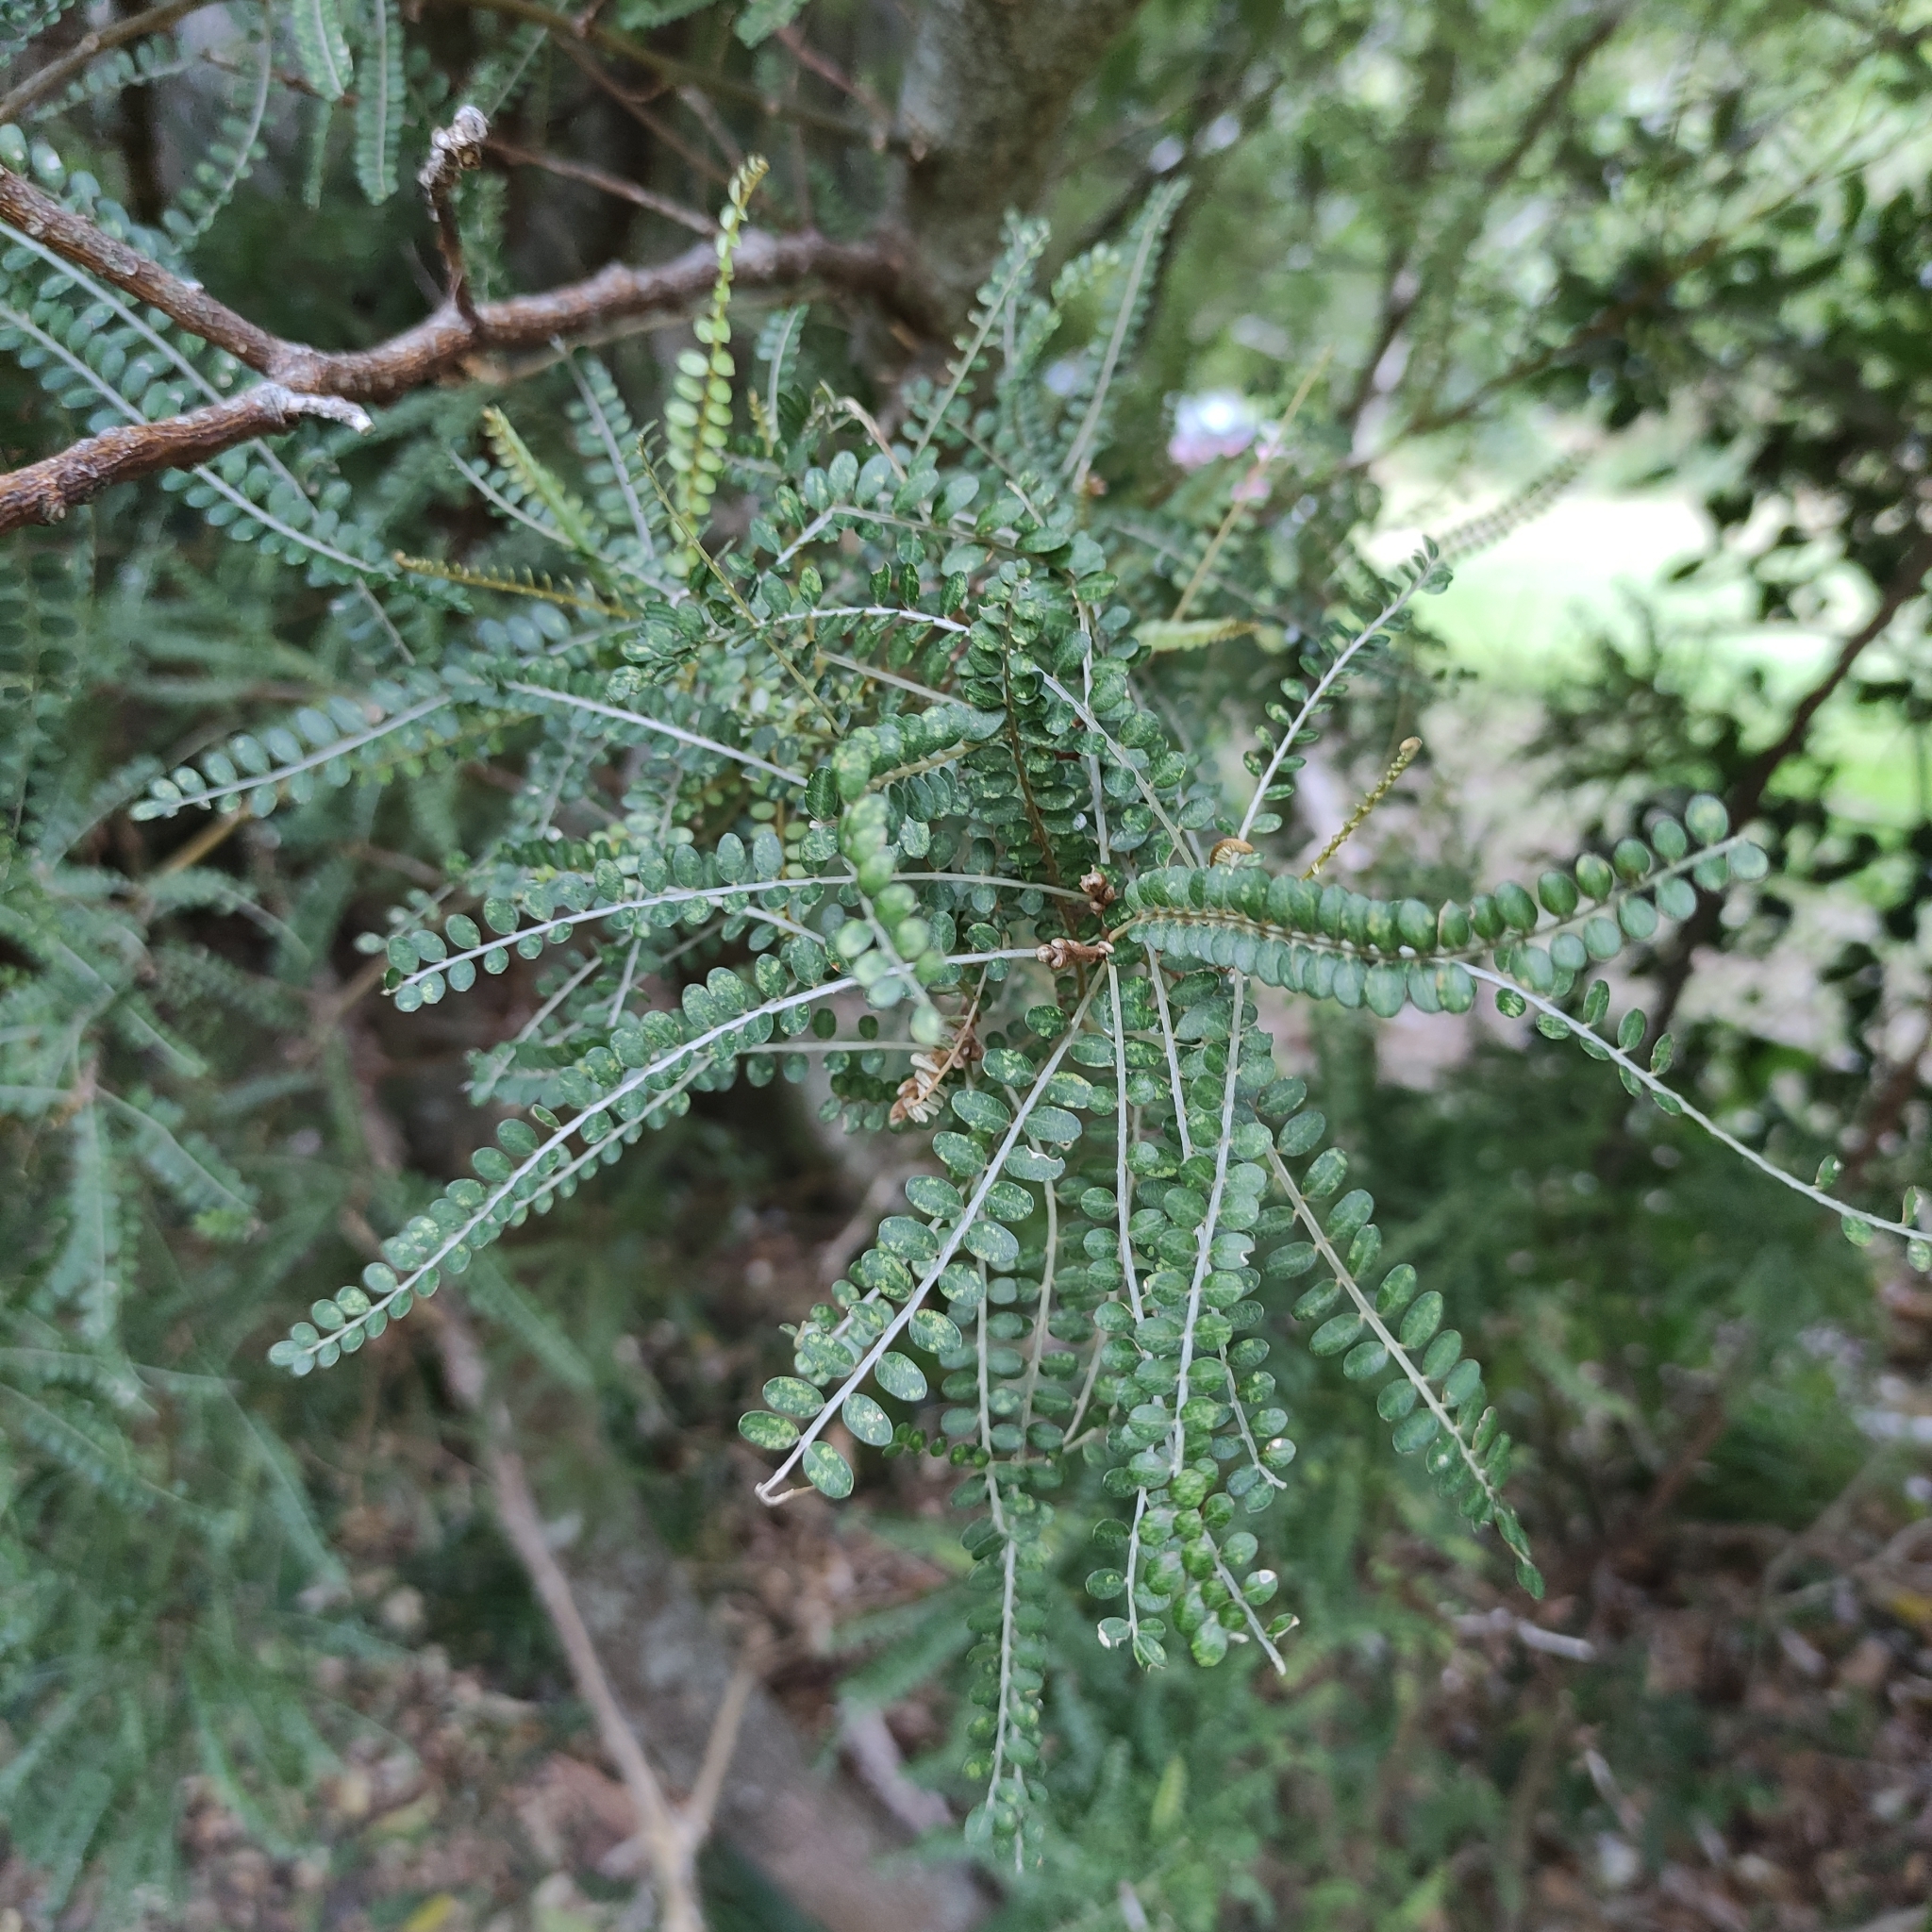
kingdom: Plantae
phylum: Tracheophyta
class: Magnoliopsida
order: Fabales
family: Fabaceae
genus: Sophora
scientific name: Sophora microphylla
